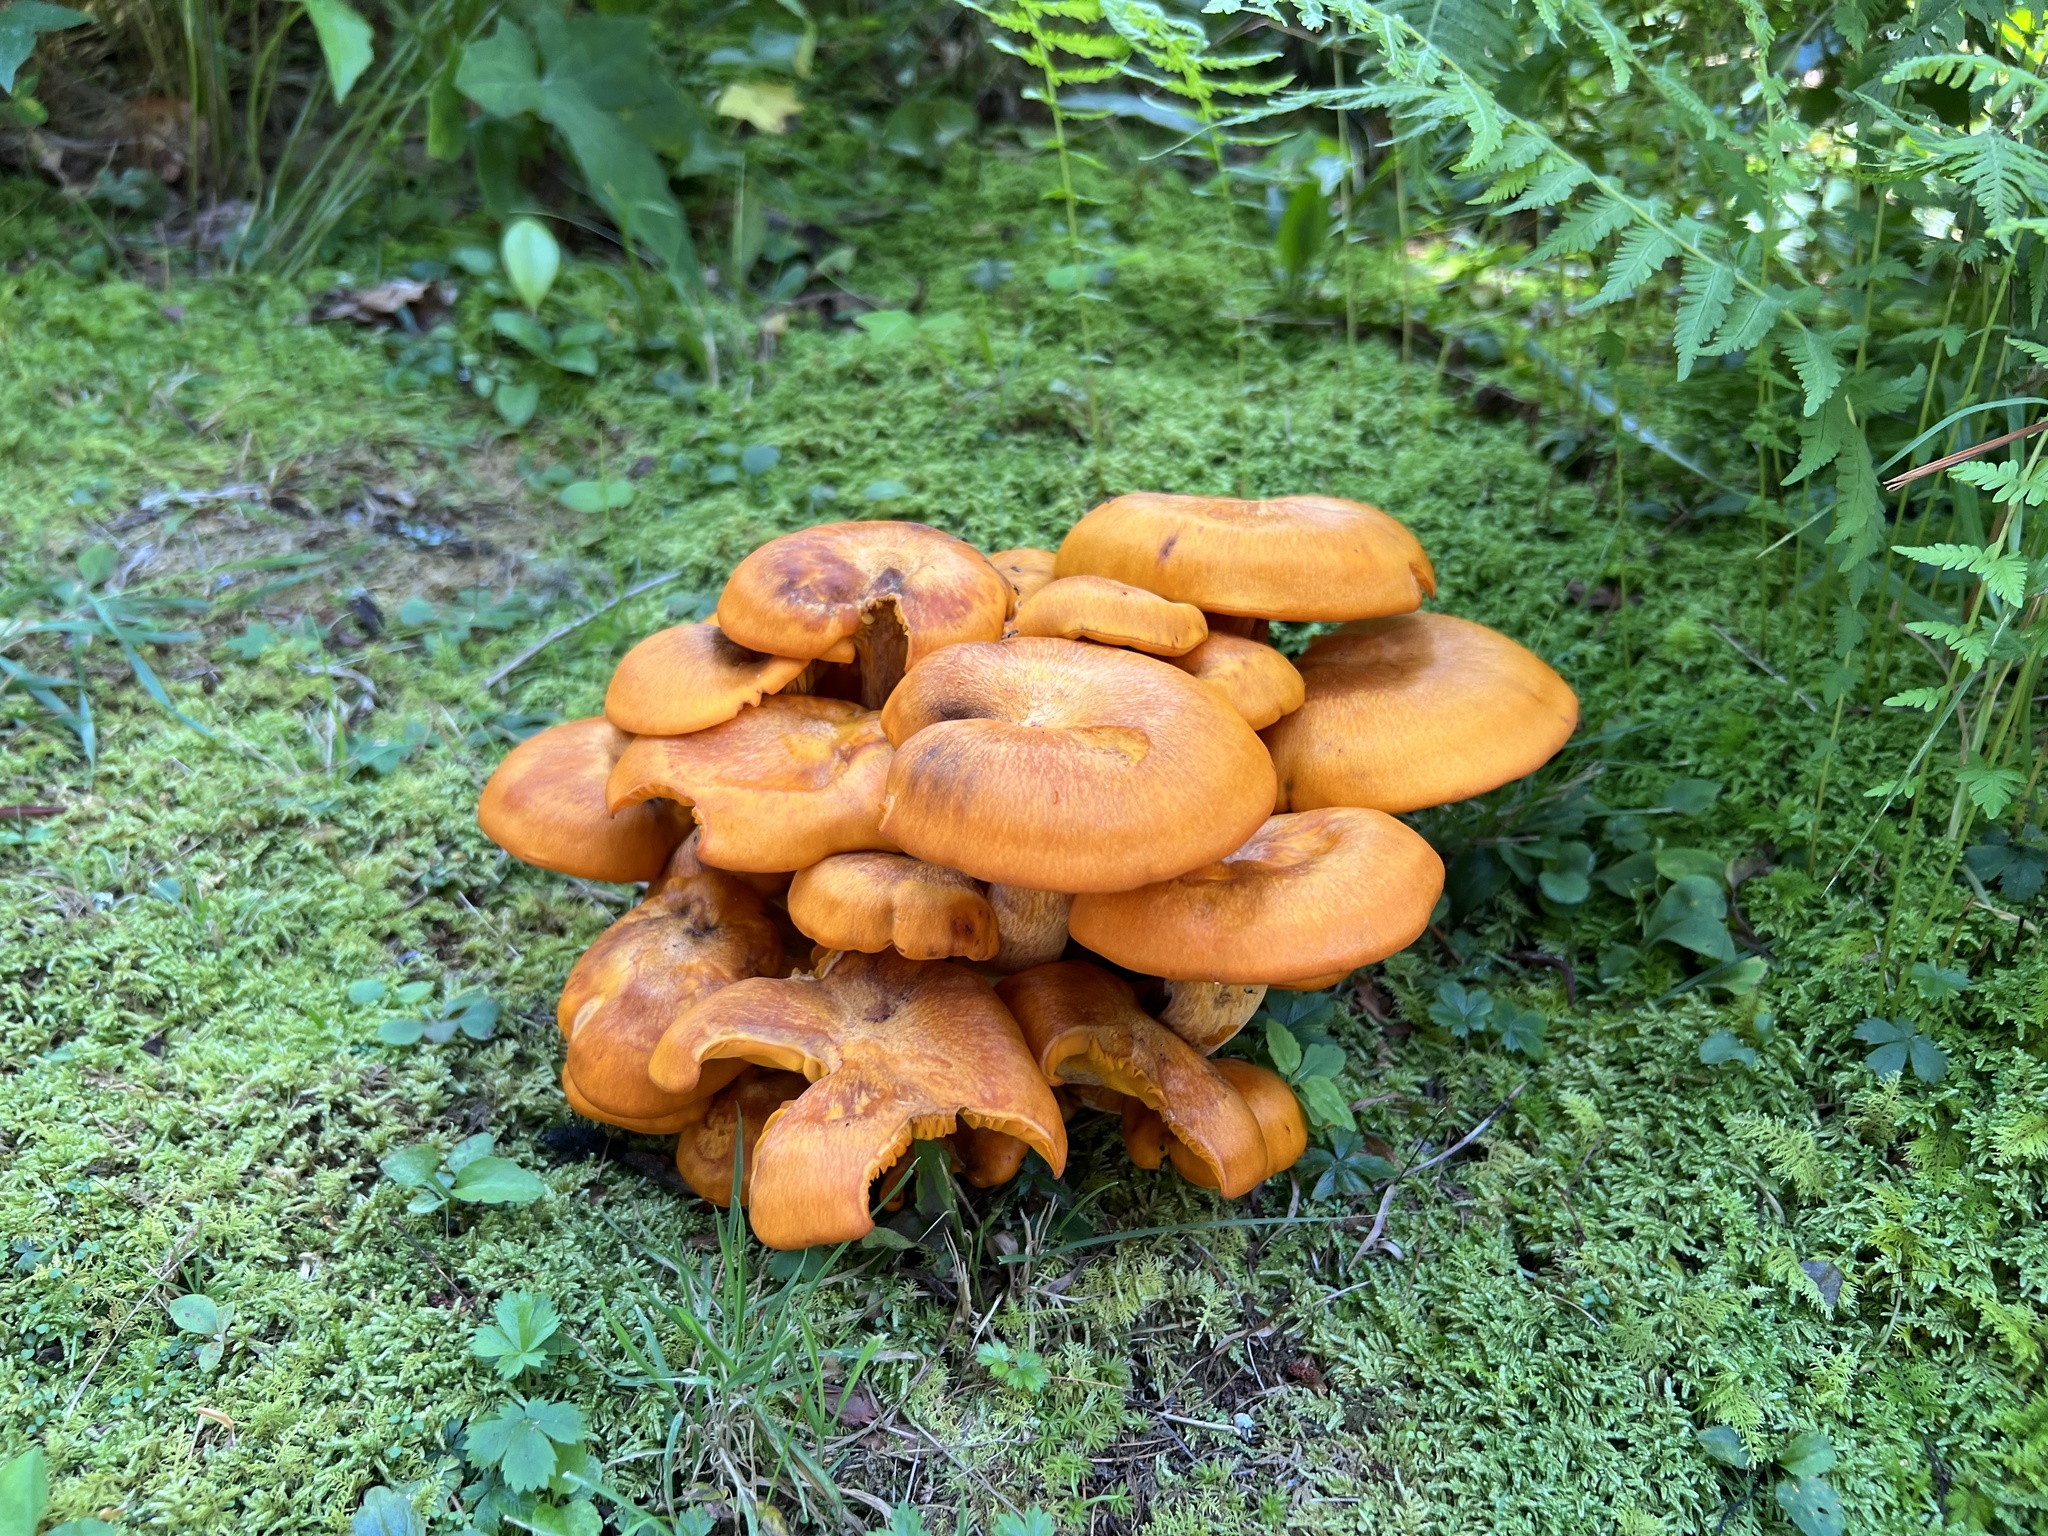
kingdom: Fungi
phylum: Basidiomycota
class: Agaricomycetes
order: Agaricales
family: Omphalotaceae
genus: Omphalotus
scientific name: Omphalotus illudens
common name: Jack o lantern
